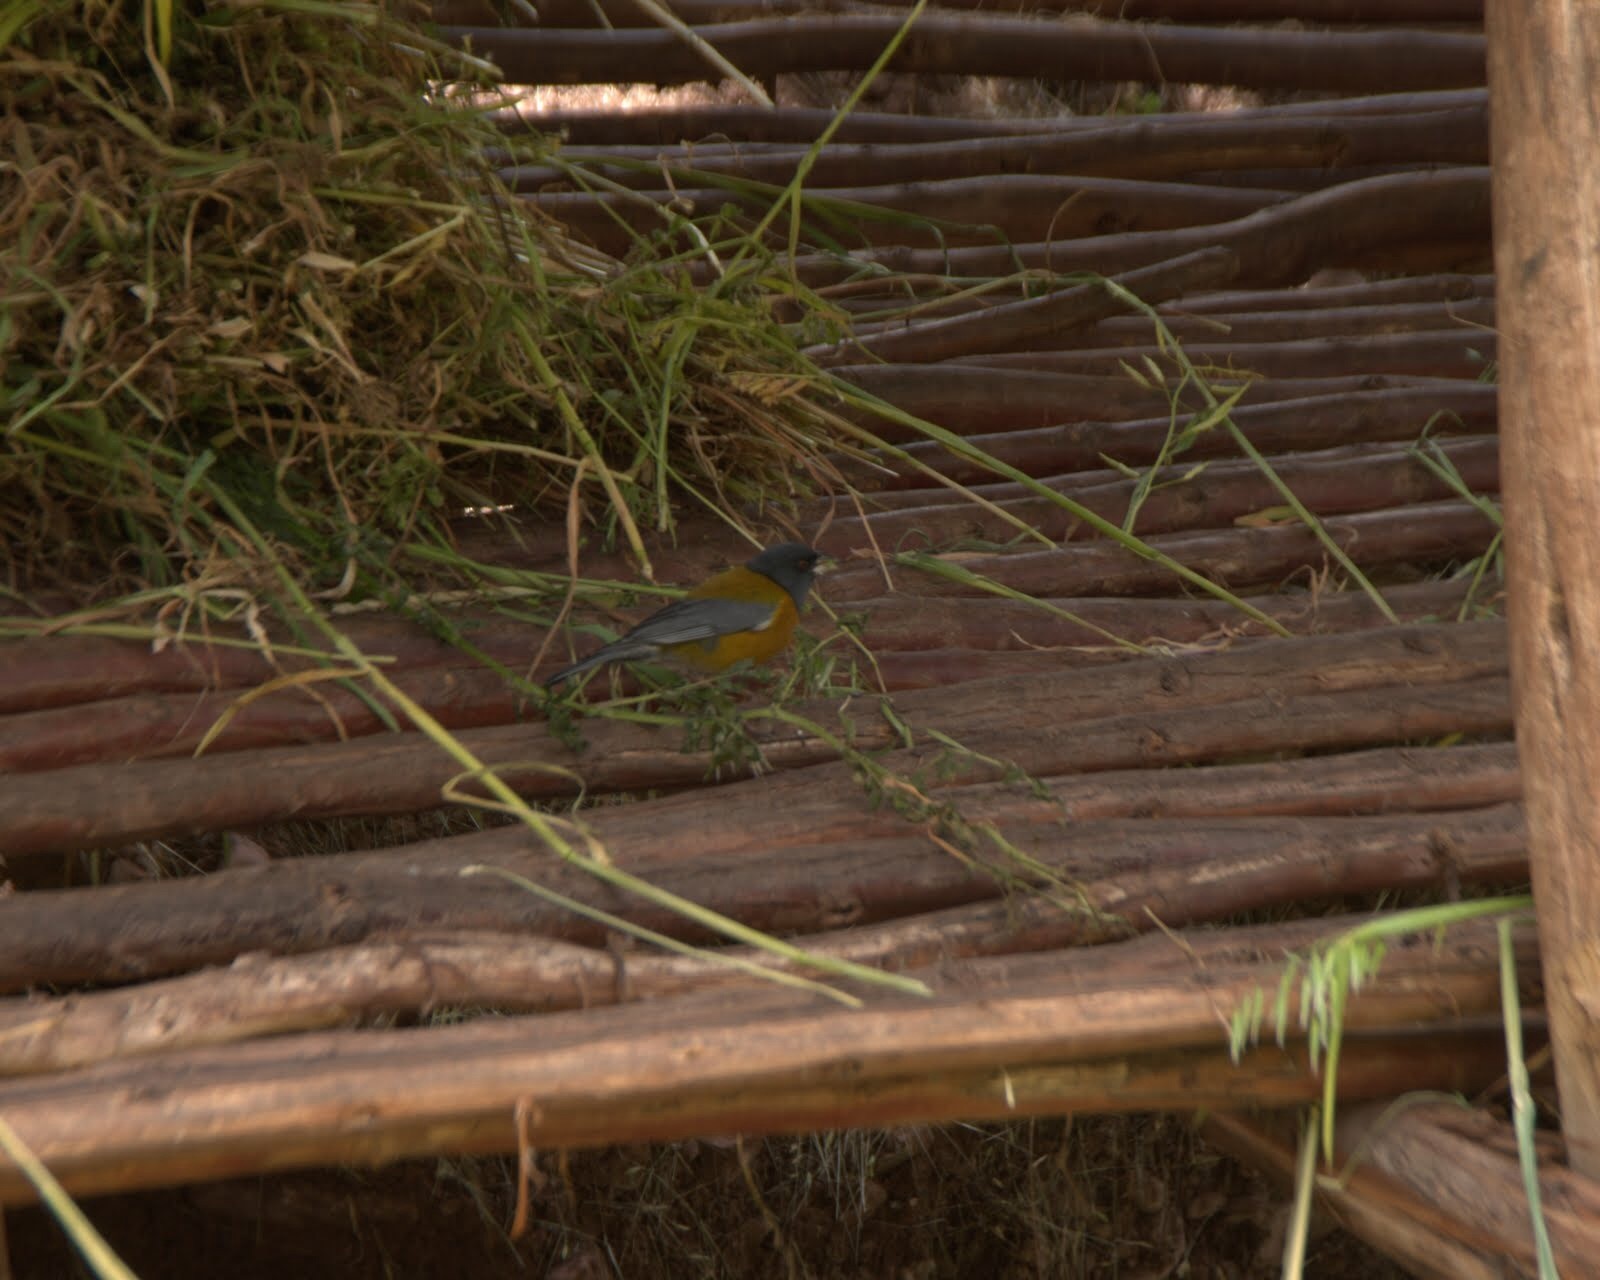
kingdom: Animalia
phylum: Chordata
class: Aves
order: Passeriformes
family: Thraupidae
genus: Phrygilus
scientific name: Phrygilus punensis
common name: Peruvian sierra finch
